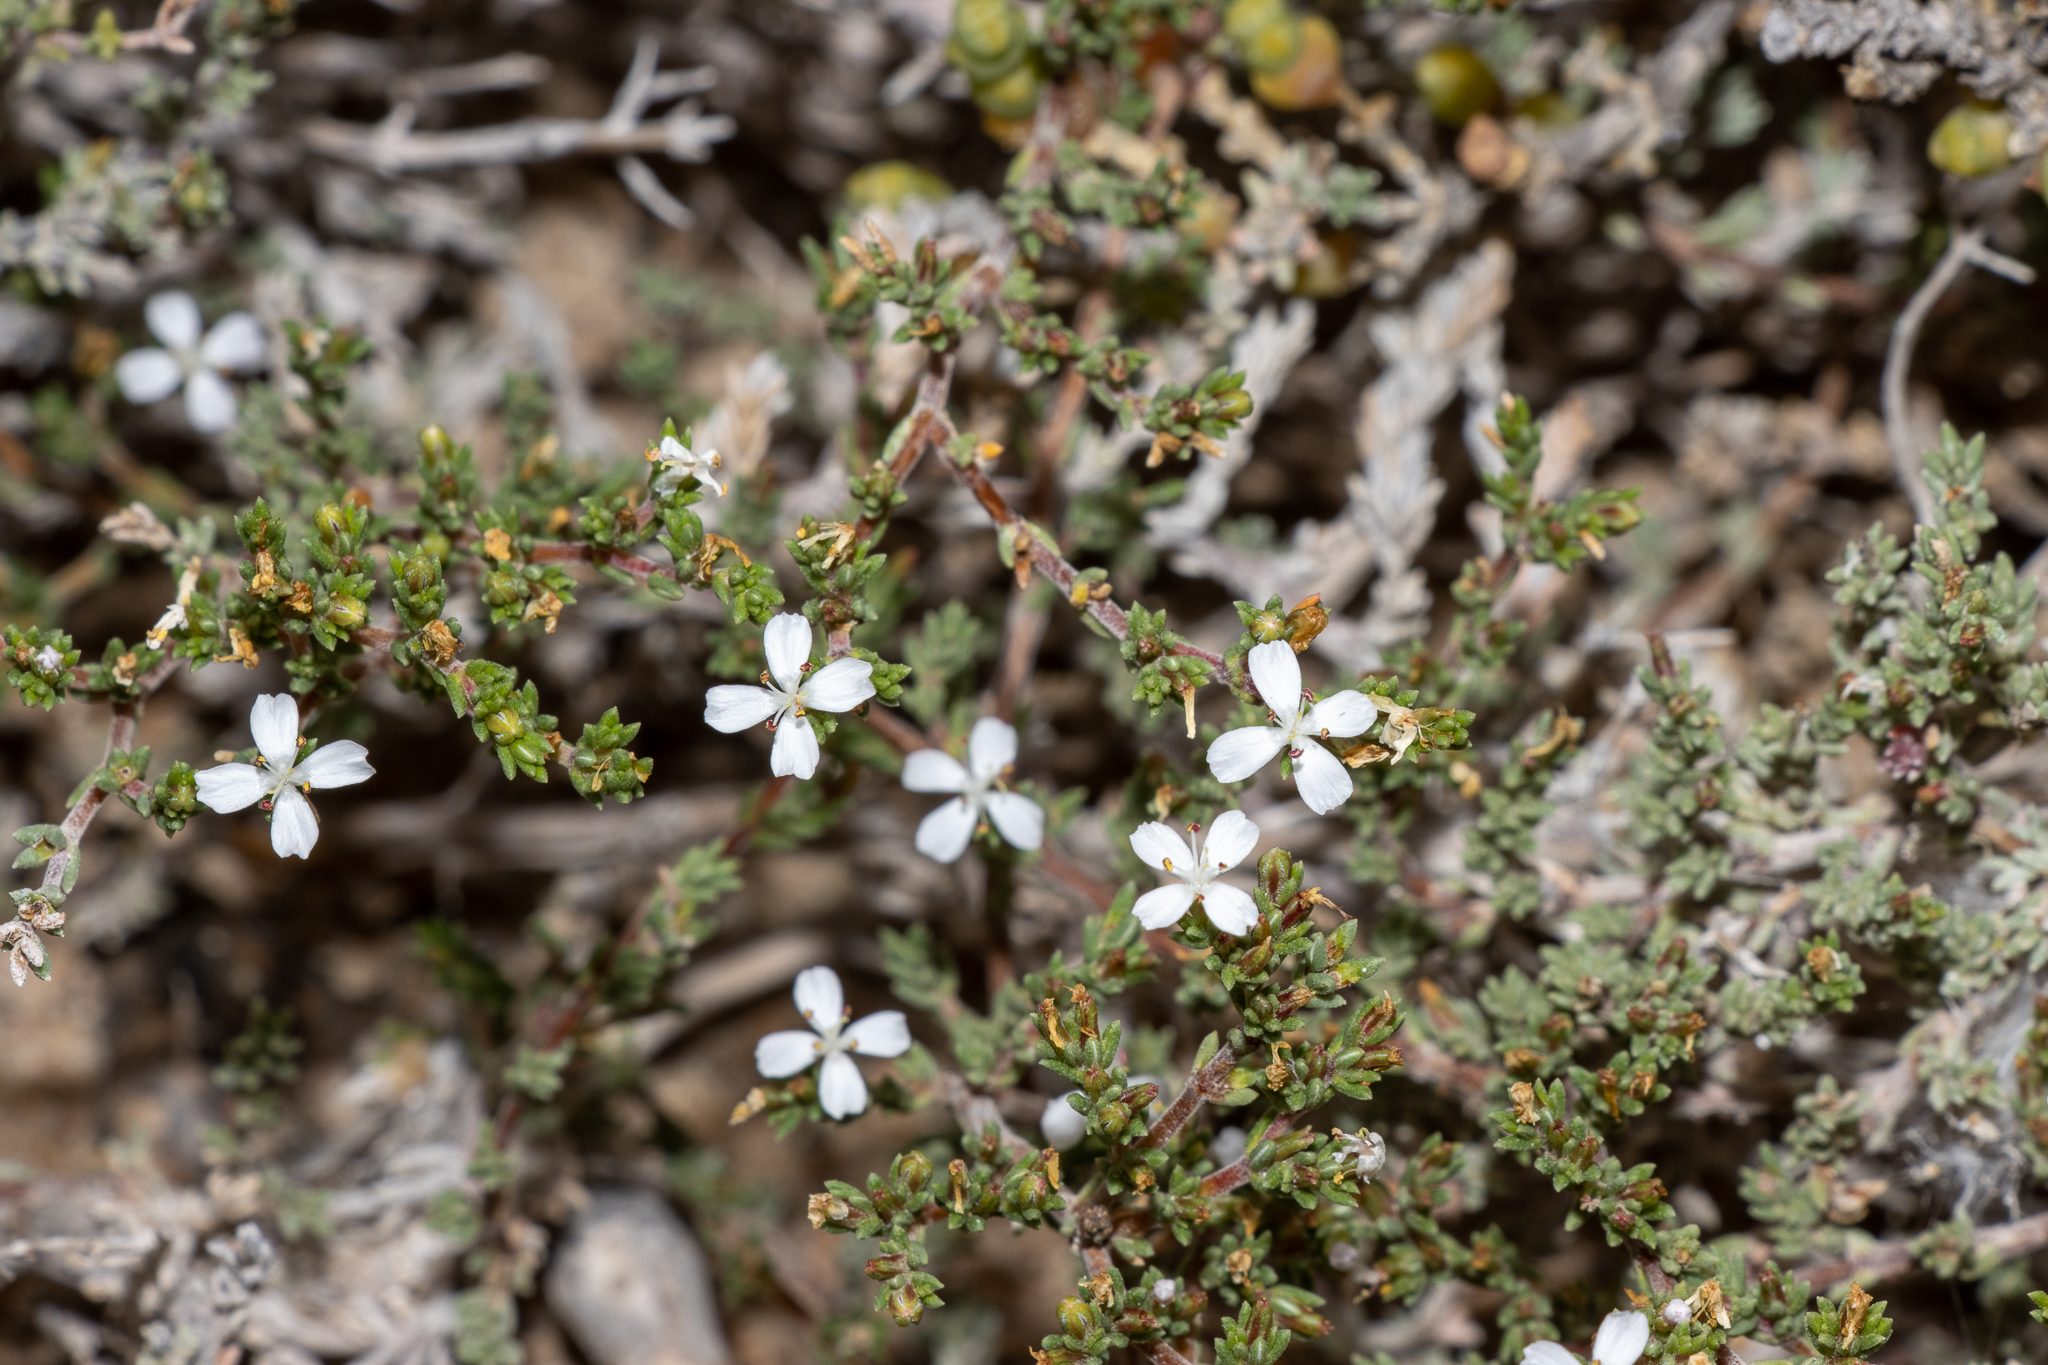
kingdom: Plantae
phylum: Tracheophyta
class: Magnoliopsida
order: Caryophyllales
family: Frankeniaceae
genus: Frankenia
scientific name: Frankenia sessilis
